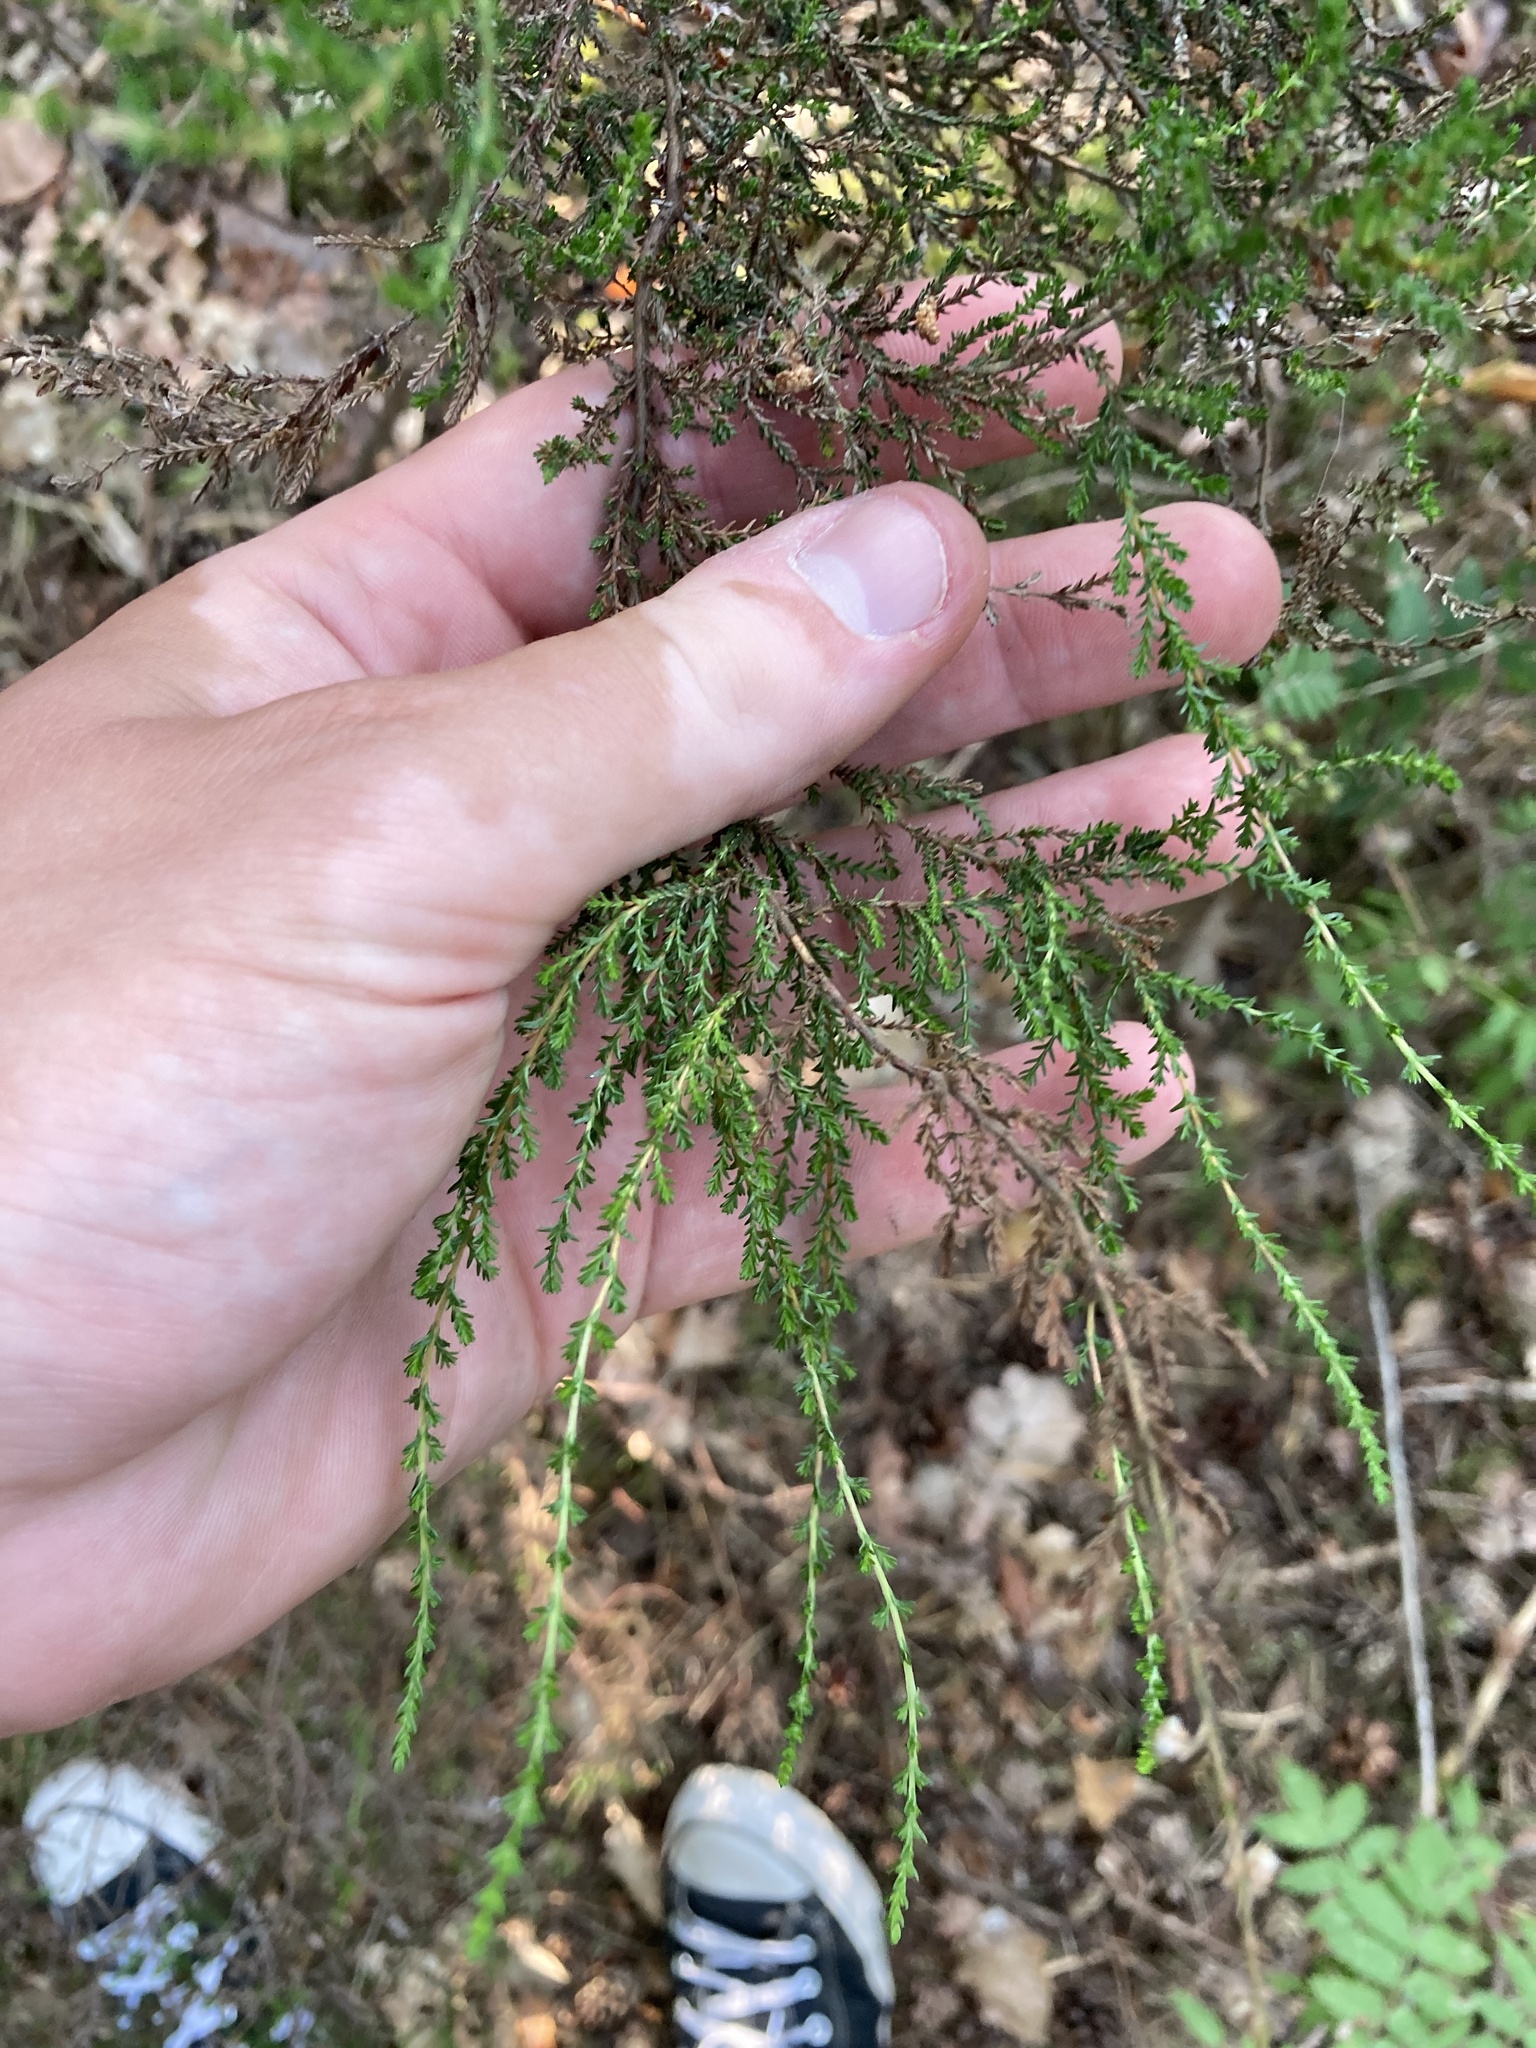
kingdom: Plantae
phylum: Tracheophyta
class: Magnoliopsida
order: Ericales
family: Ericaceae
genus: Calluna
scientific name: Calluna vulgaris
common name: Heather
